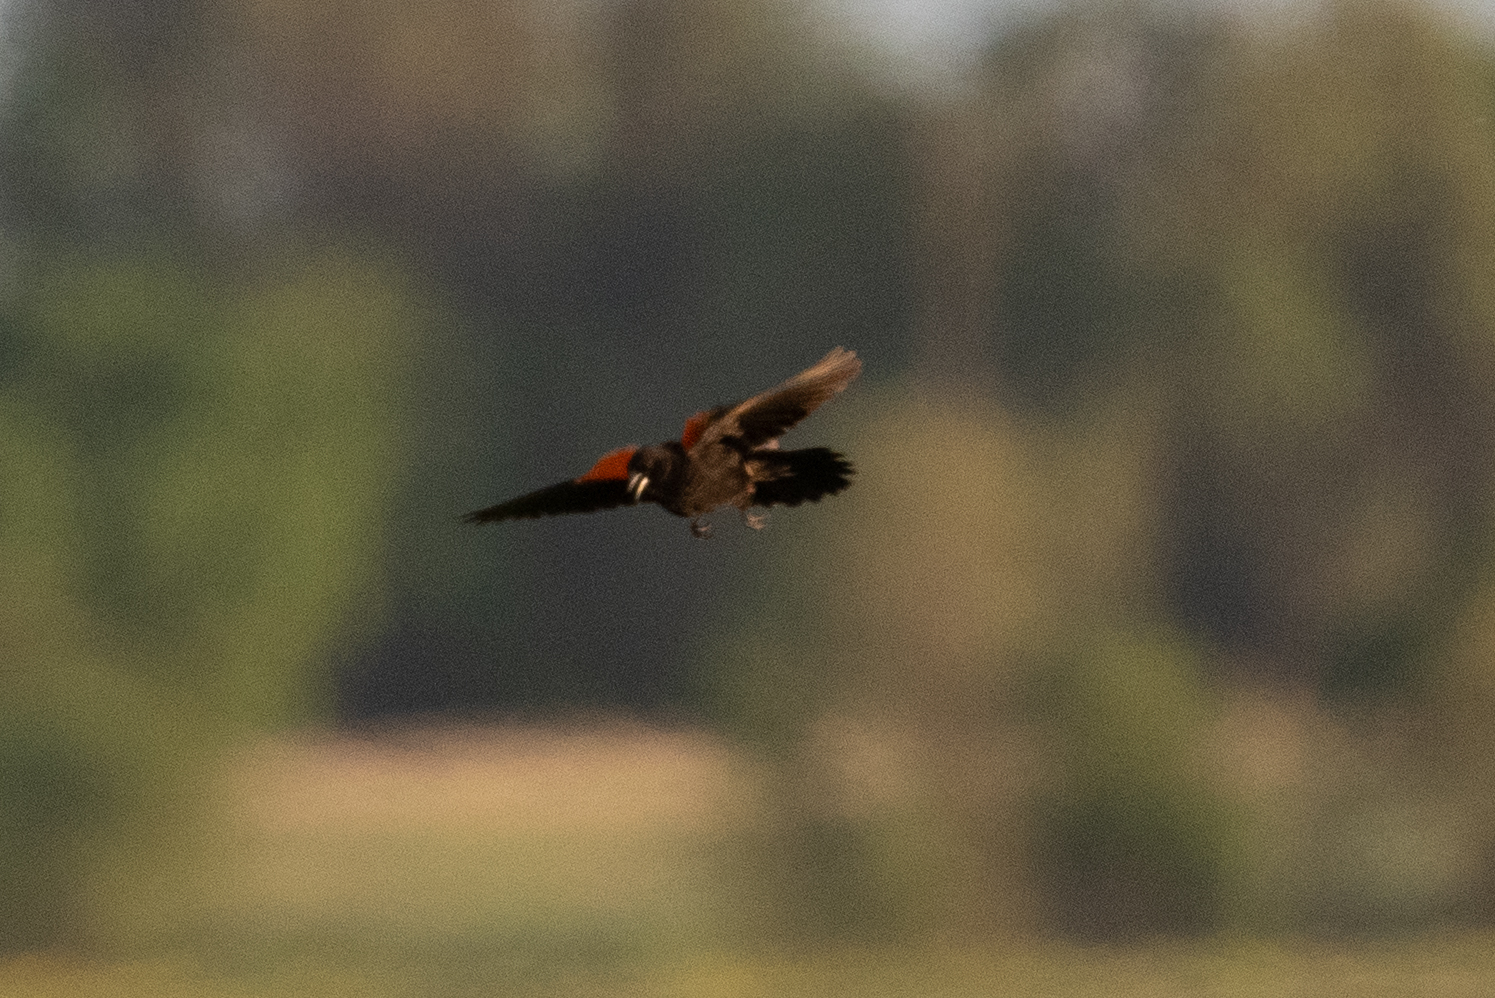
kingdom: Animalia
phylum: Chordata
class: Aves
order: Passeriformes
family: Icteridae
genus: Agelaius
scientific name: Agelaius phoeniceus
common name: Red-winged blackbird
